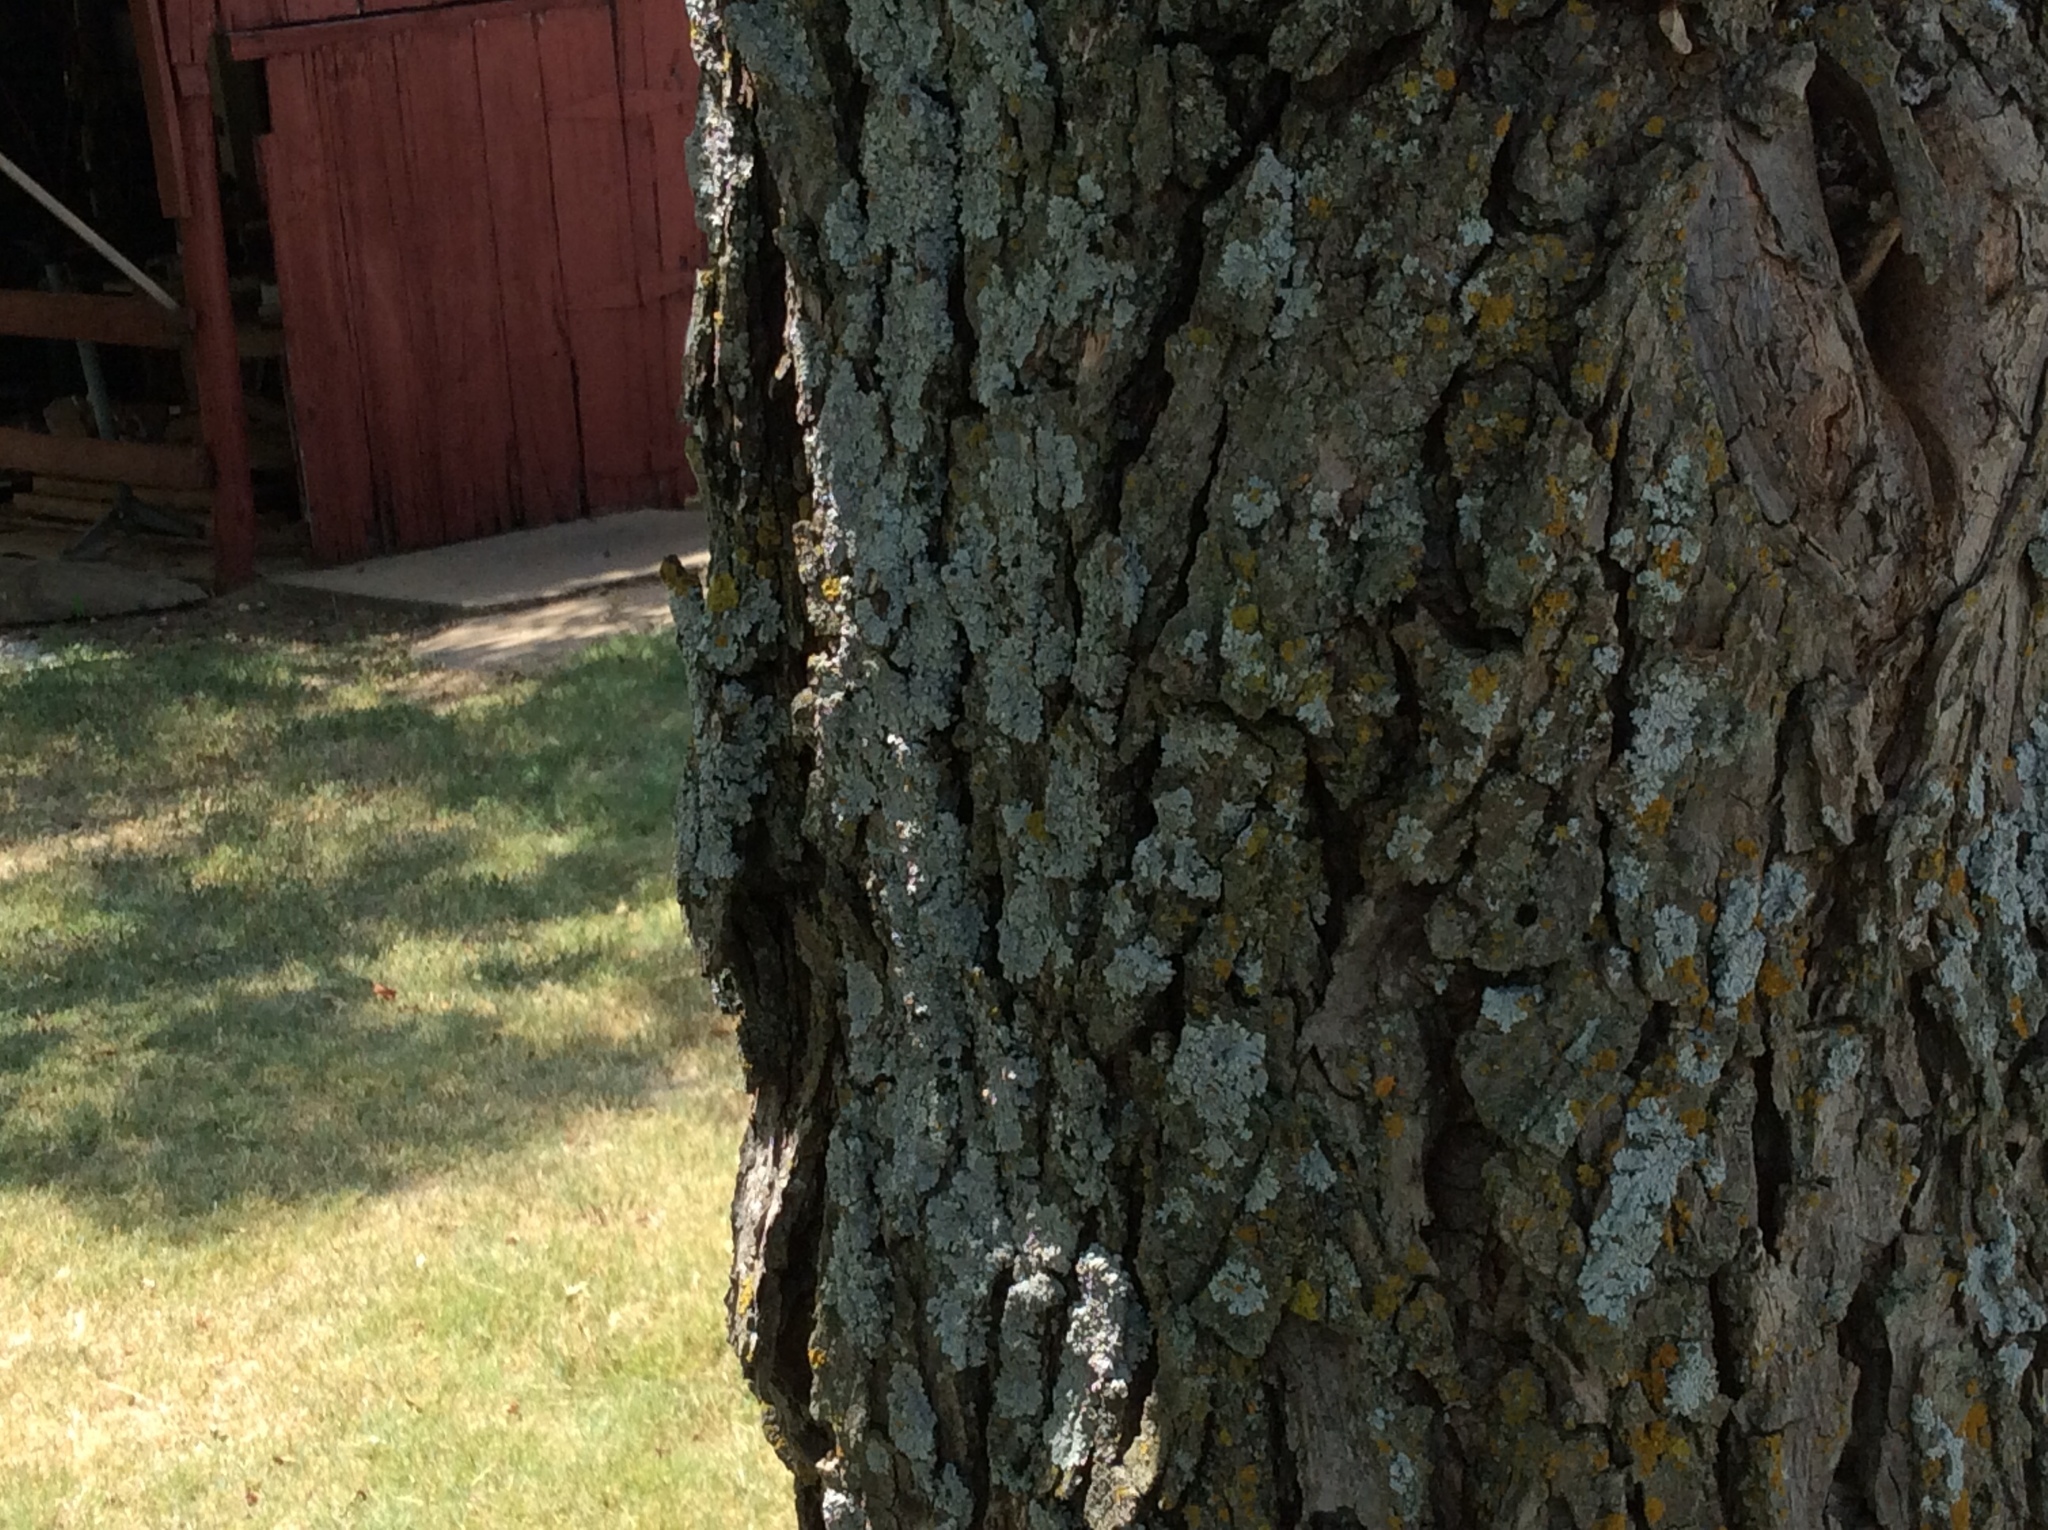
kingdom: Plantae
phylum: Tracheophyta
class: Magnoliopsida
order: Fagales
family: Juglandaceae
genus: Carya
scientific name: Carya illinoinensis
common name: Pecan
